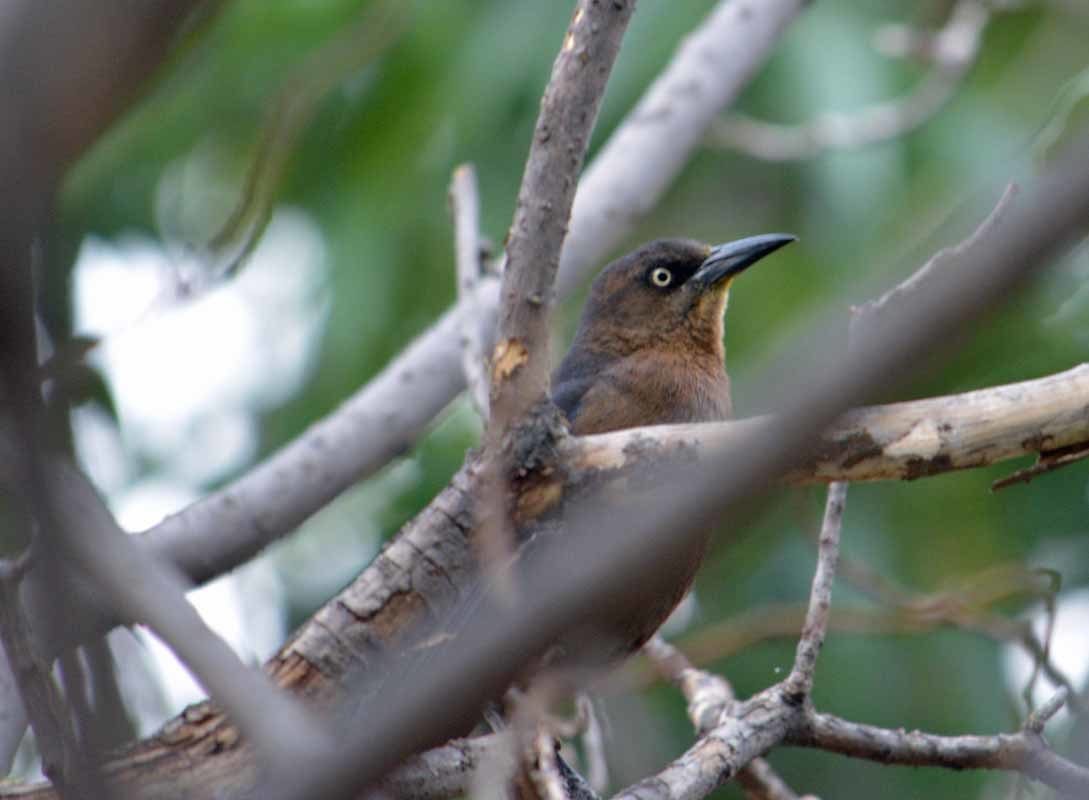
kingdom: Animalia
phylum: Chordata
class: Aves
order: Passeriformes
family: Icteridae
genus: Quiscalus
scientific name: Quiscalus mexicanus
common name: Great-tailed grackle
